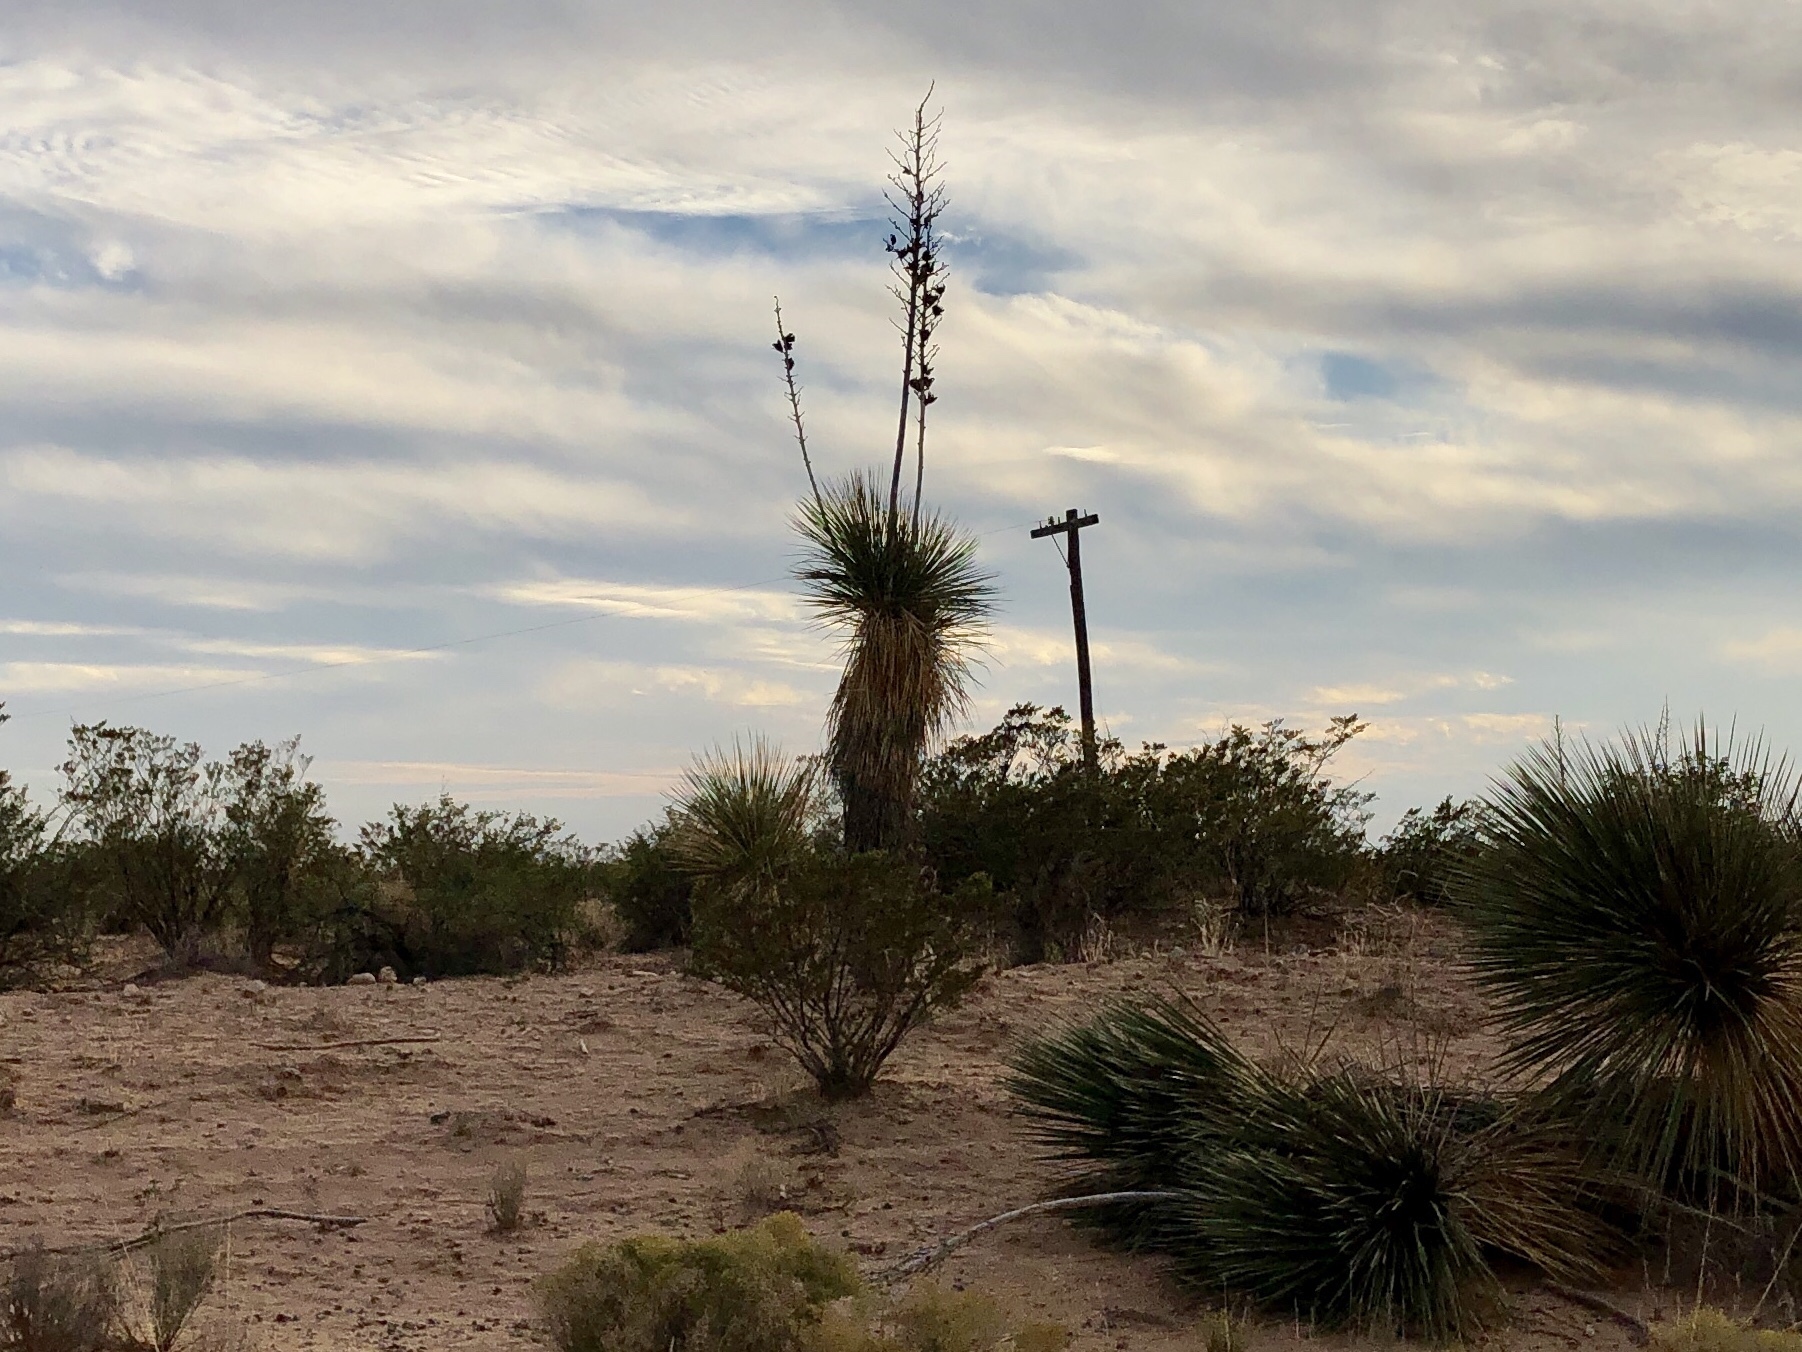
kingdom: Plantae
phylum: Tracheophyta
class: Liliopsida
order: Asparagales
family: Asparagaceae
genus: Yucca
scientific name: Yucca elata
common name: Palmella
